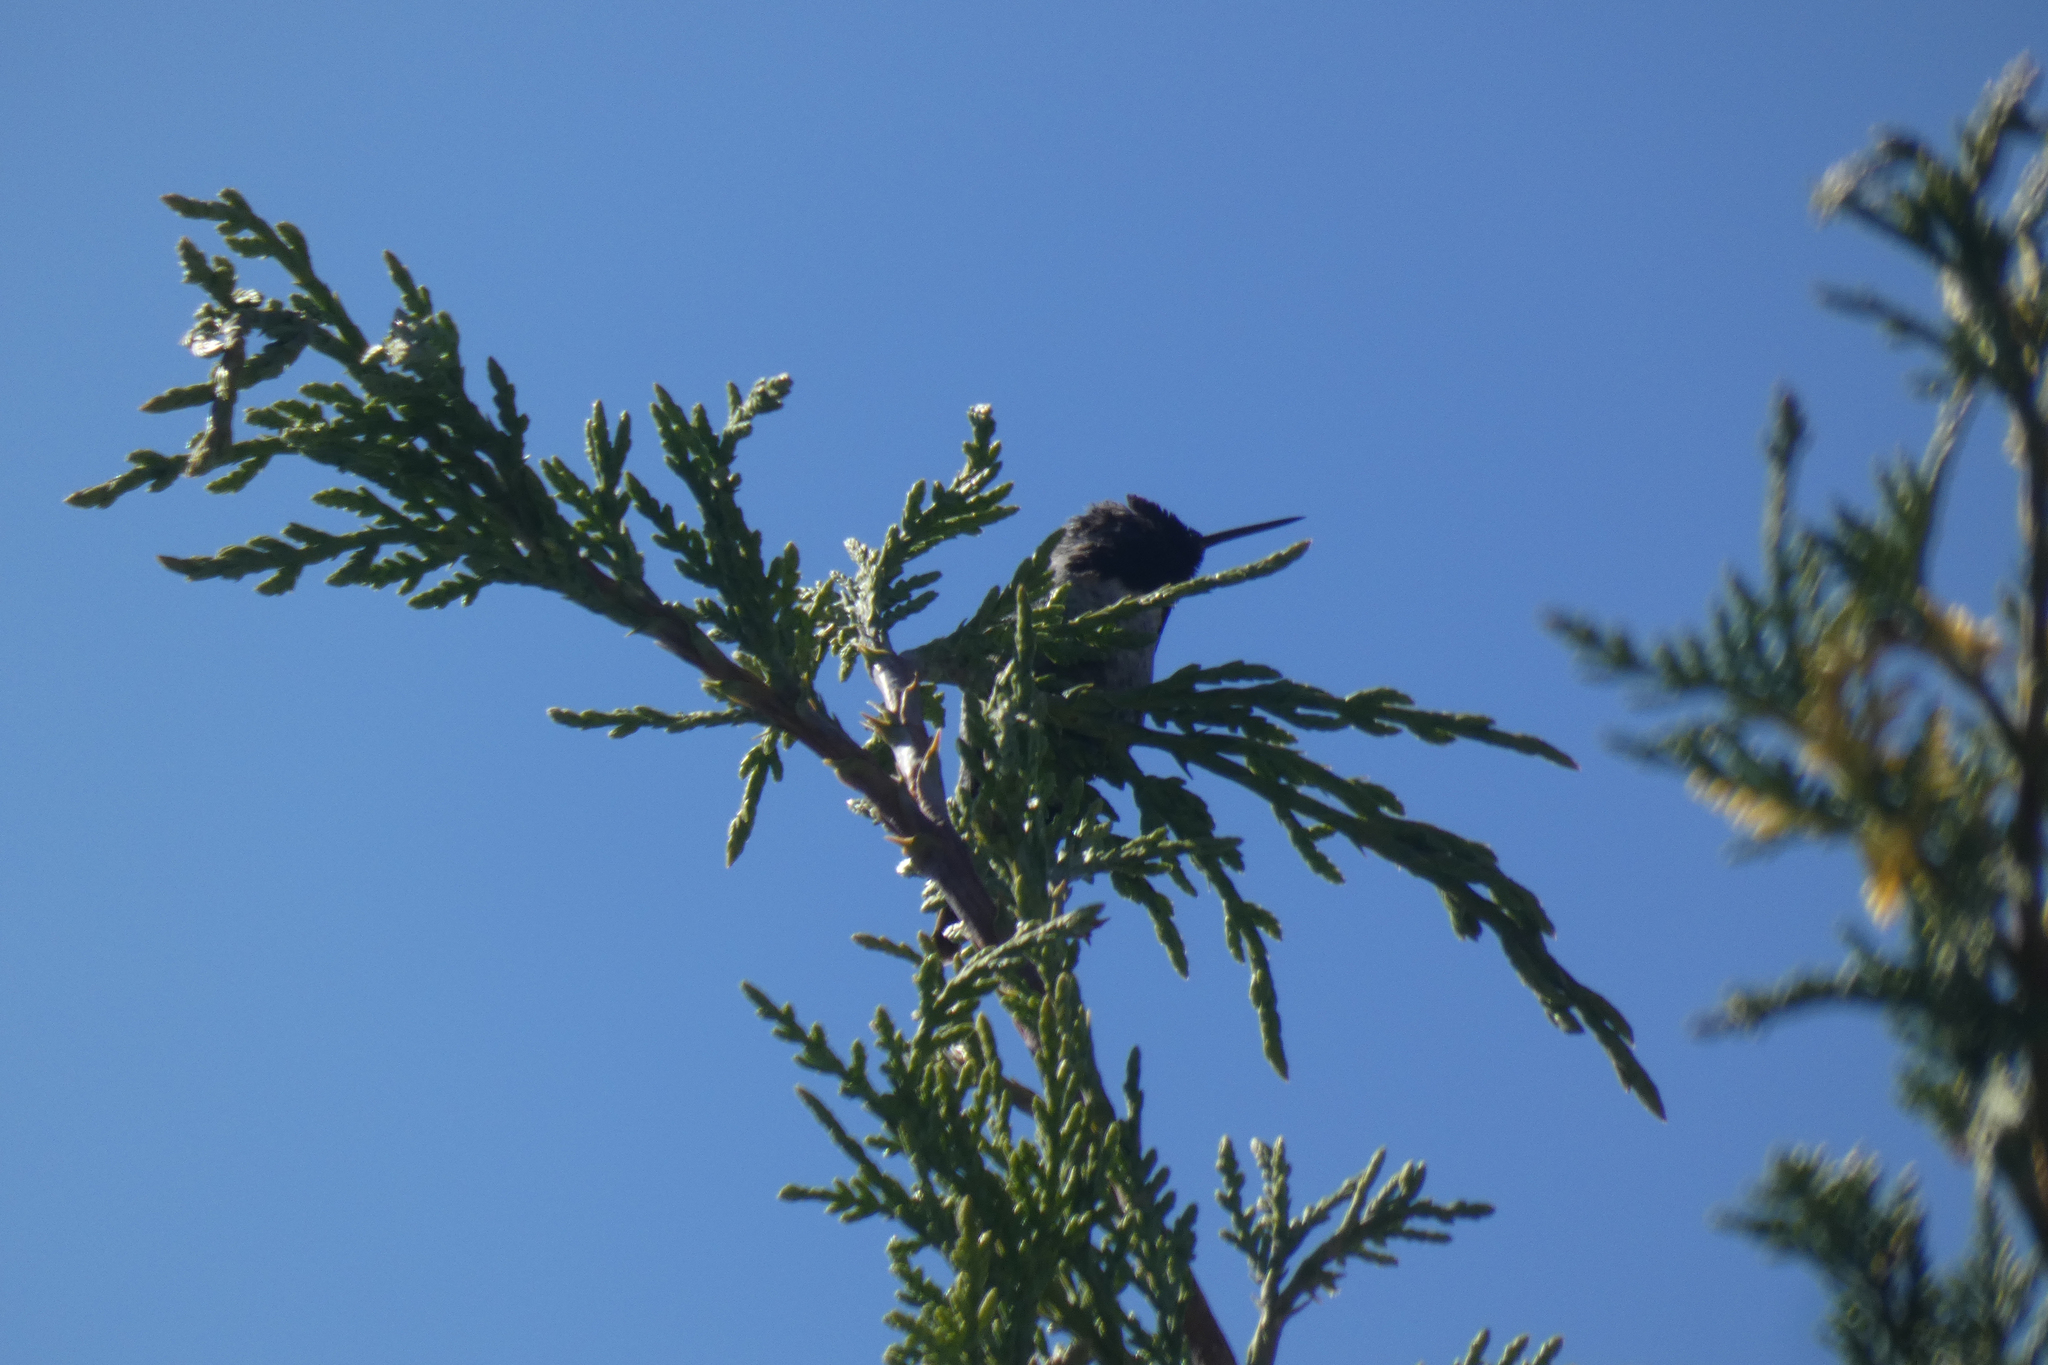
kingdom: Animalia
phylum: Chordata
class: Aves
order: Apodiformes
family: Trochilidae
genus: Calypte
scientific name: Calypte anna
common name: Anna's hummingbird
